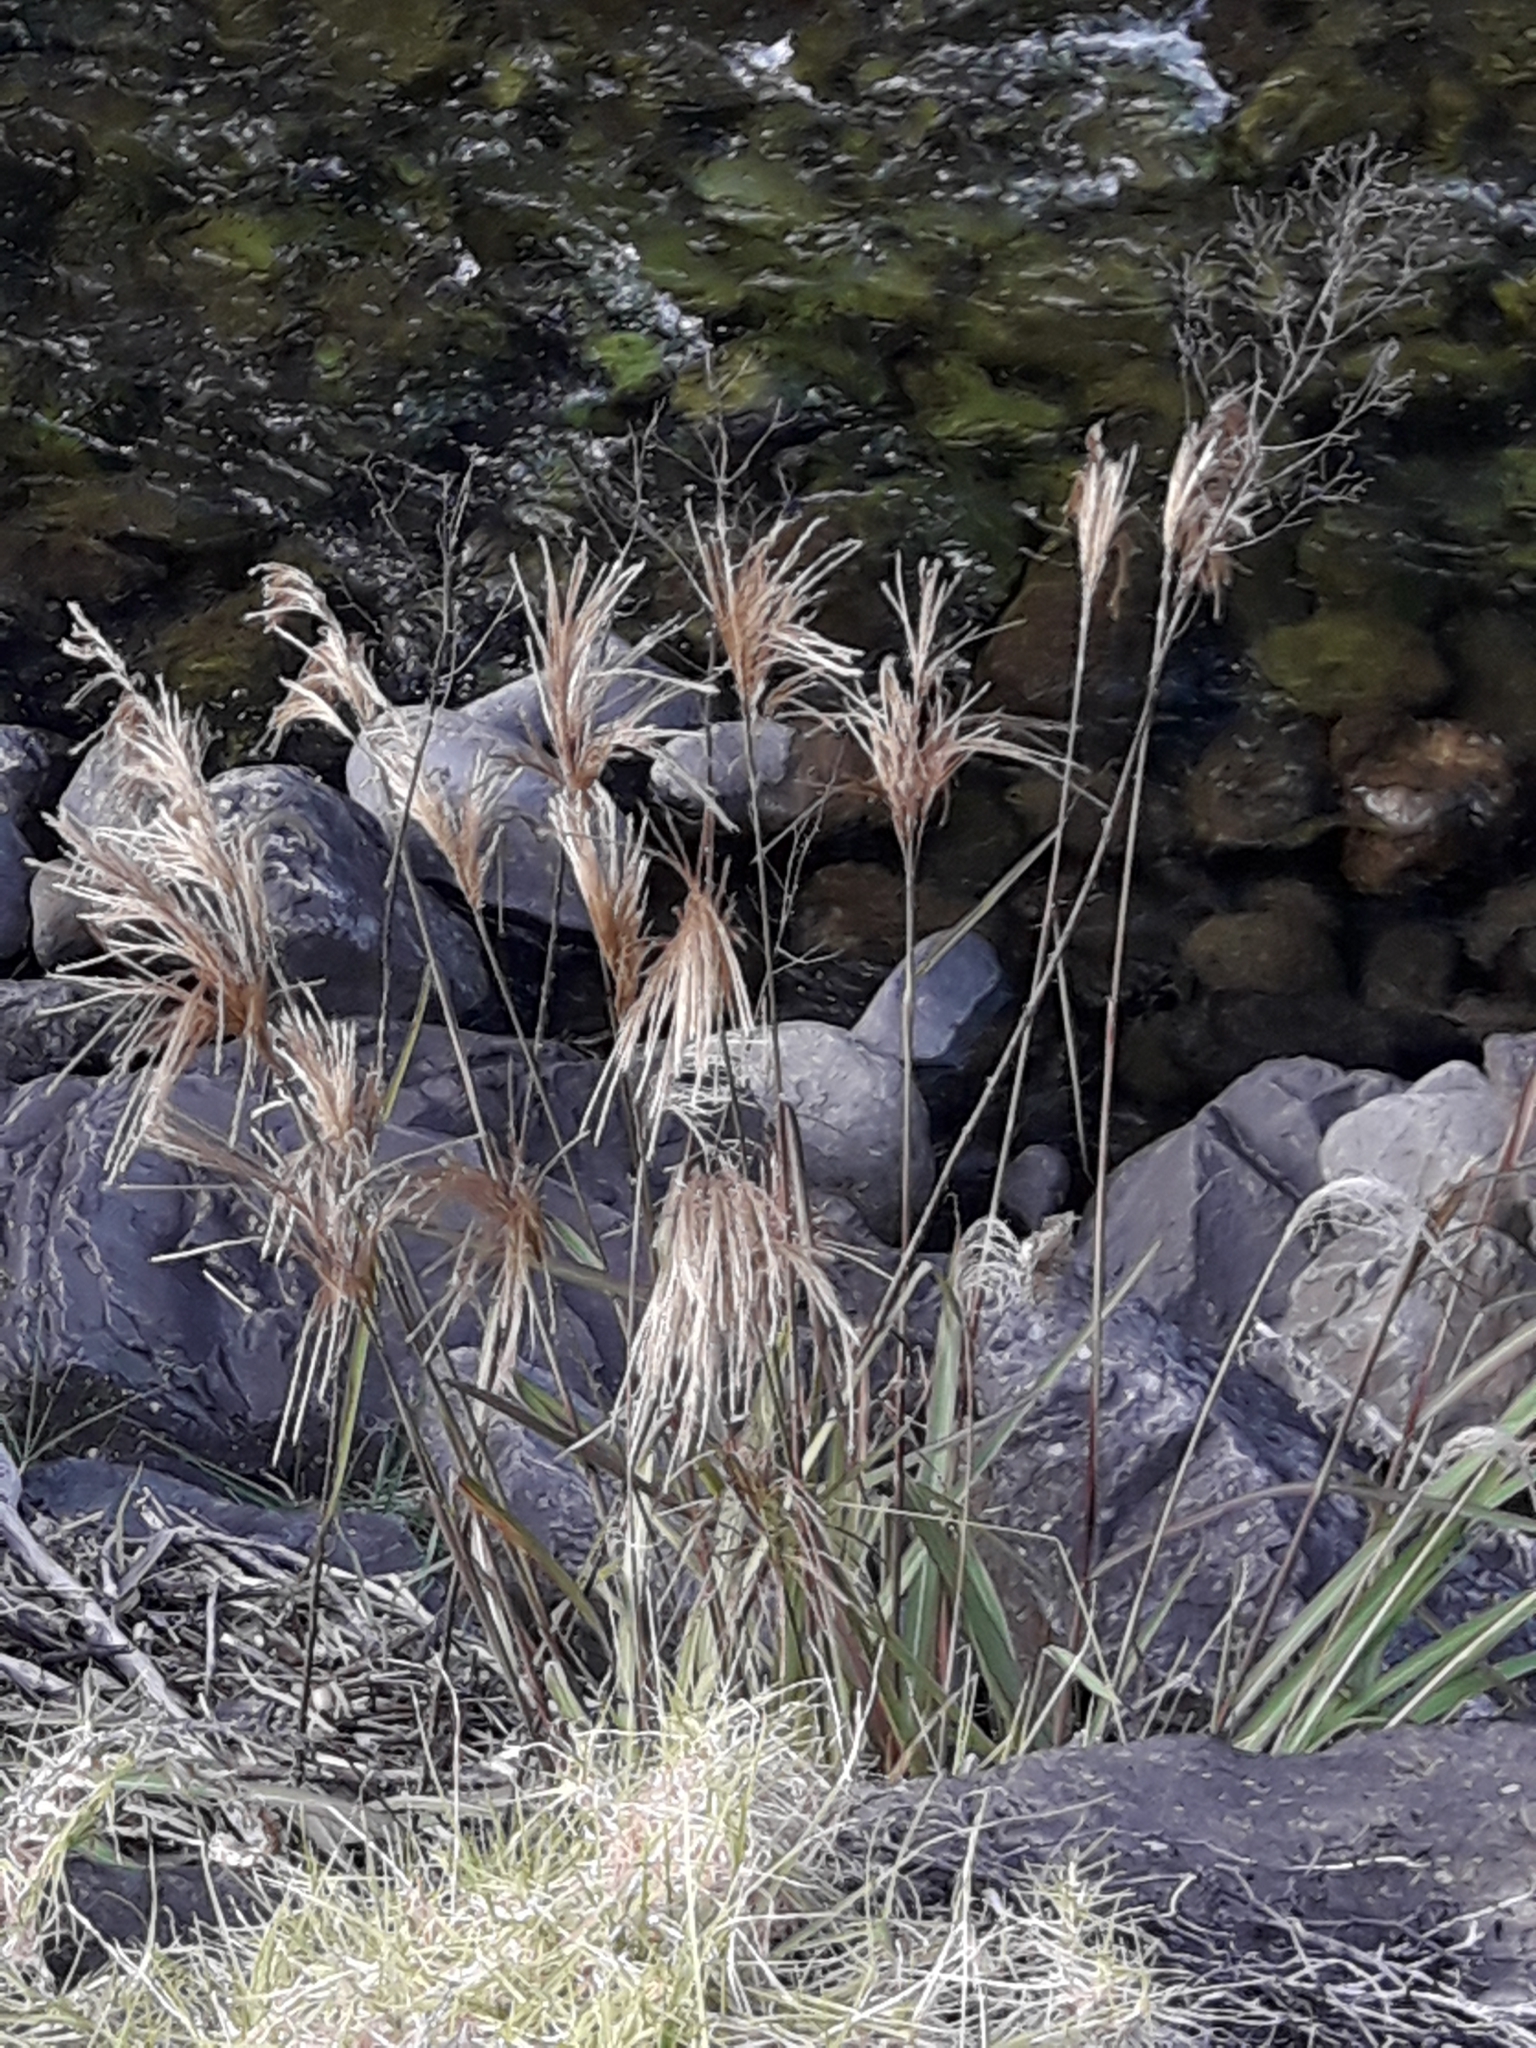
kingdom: Plantae
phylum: Tracheophyta
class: Liliopsida
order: Poales
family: Poaceae
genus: Miscanthus
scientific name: Miscanthus nepalensis
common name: Nepal silver grass
